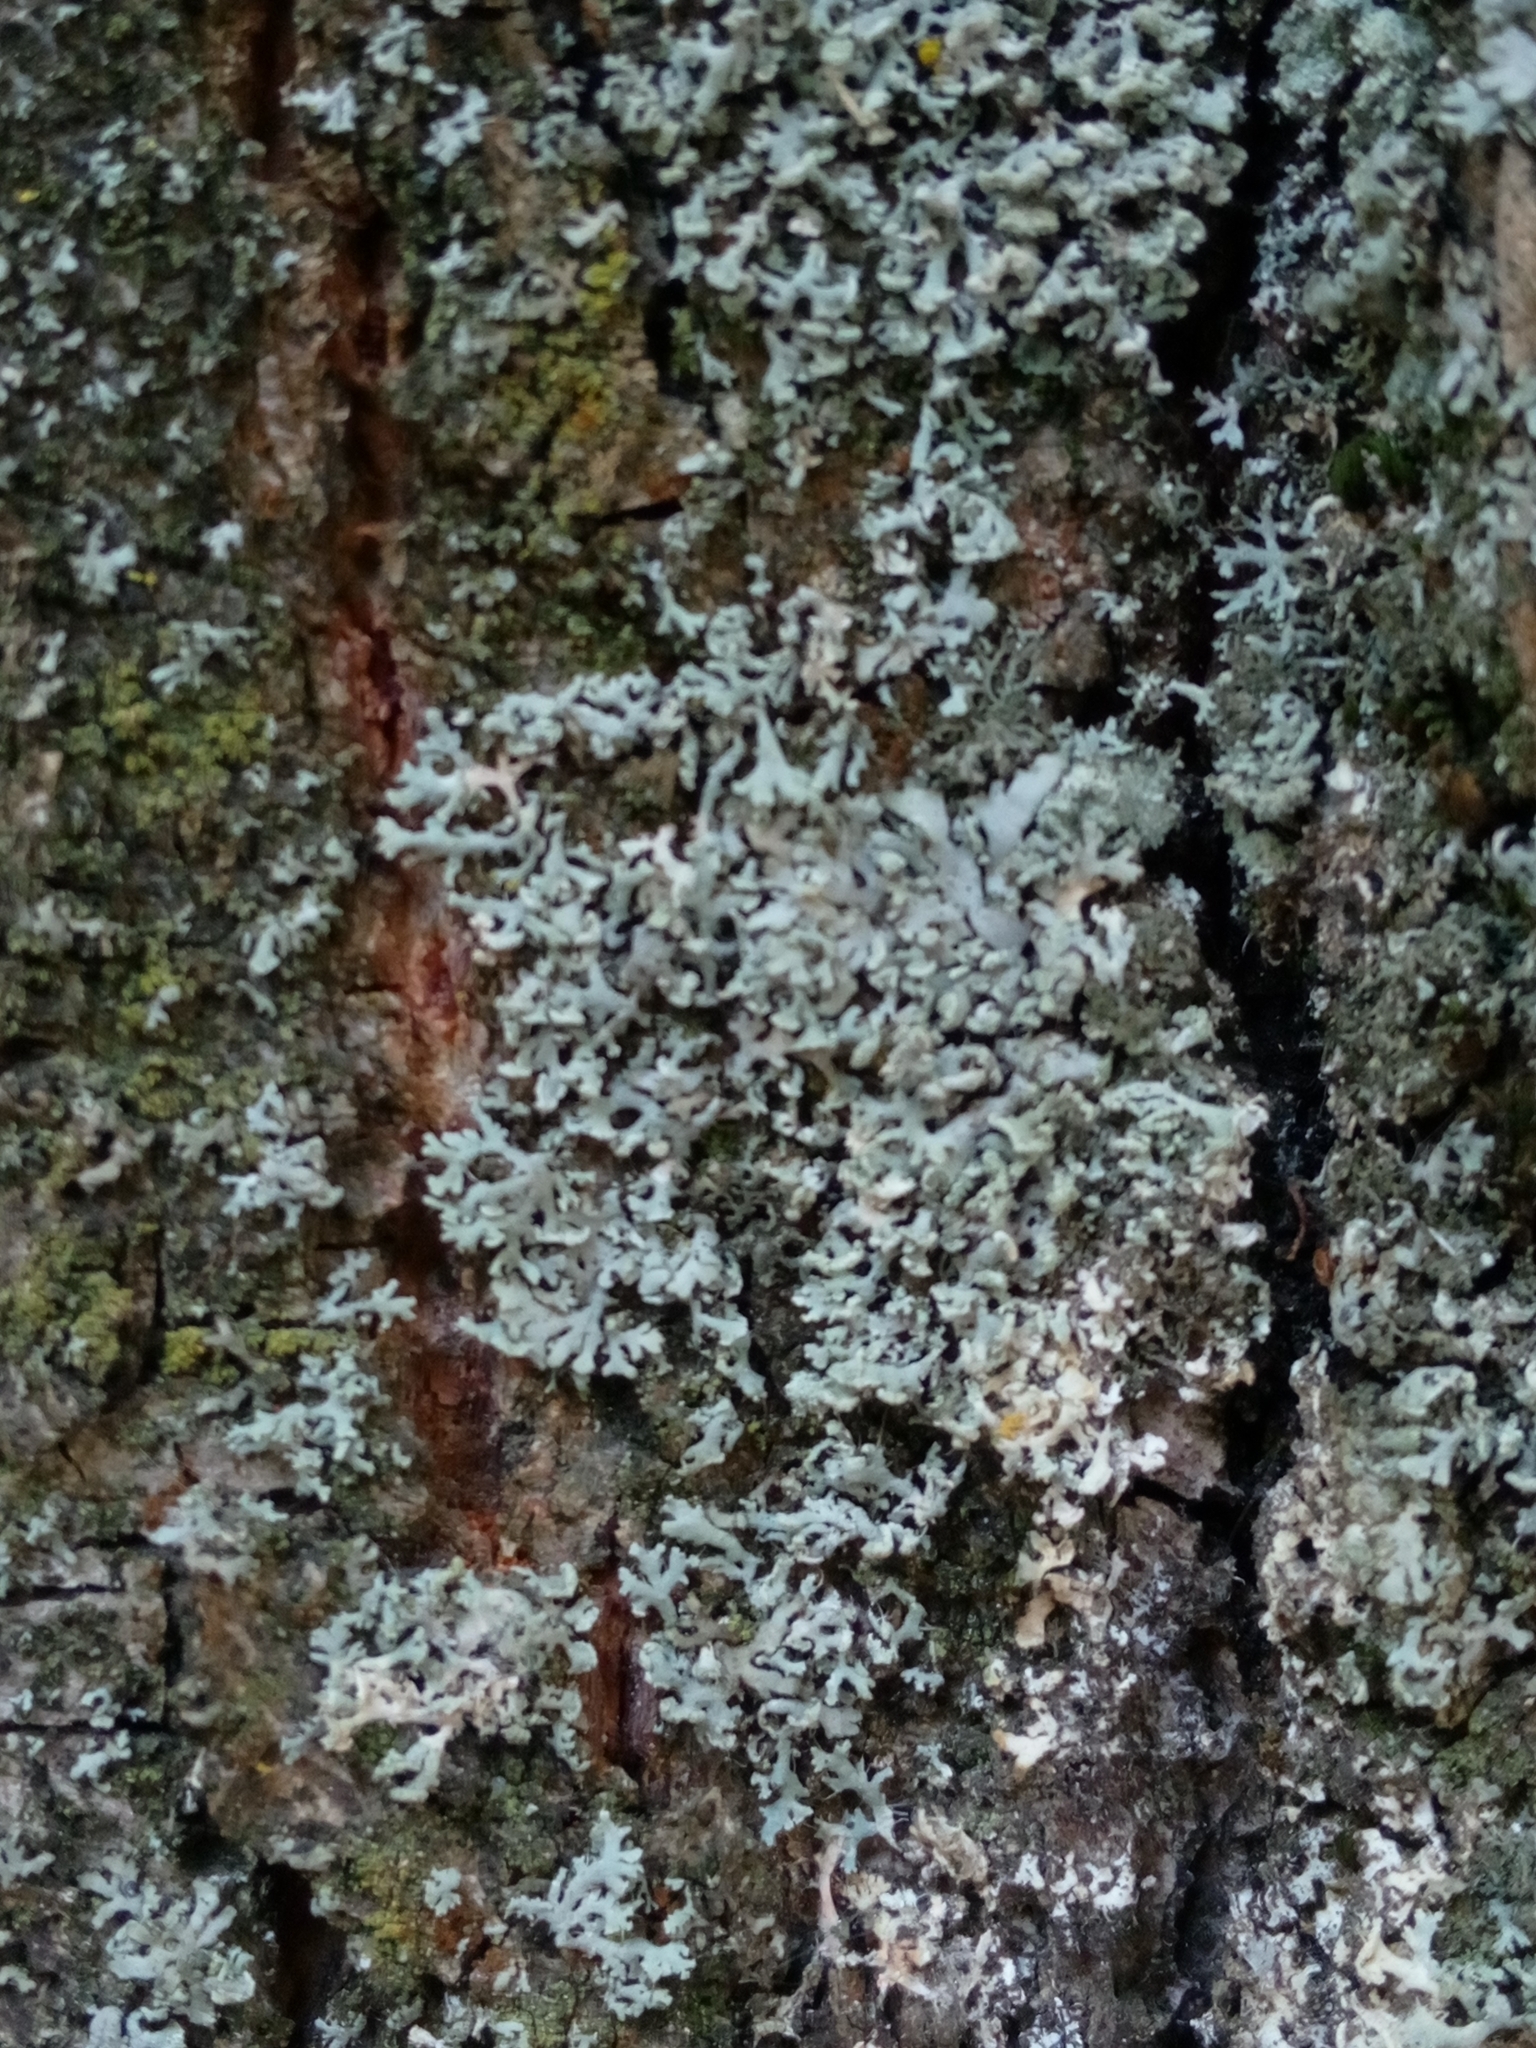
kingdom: Fungi
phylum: Ascomycota
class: Lecanoromycetes
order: Caliciales
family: Physciaceae
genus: Physcia
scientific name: Physcia tenella
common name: Fringed rosette lichen
